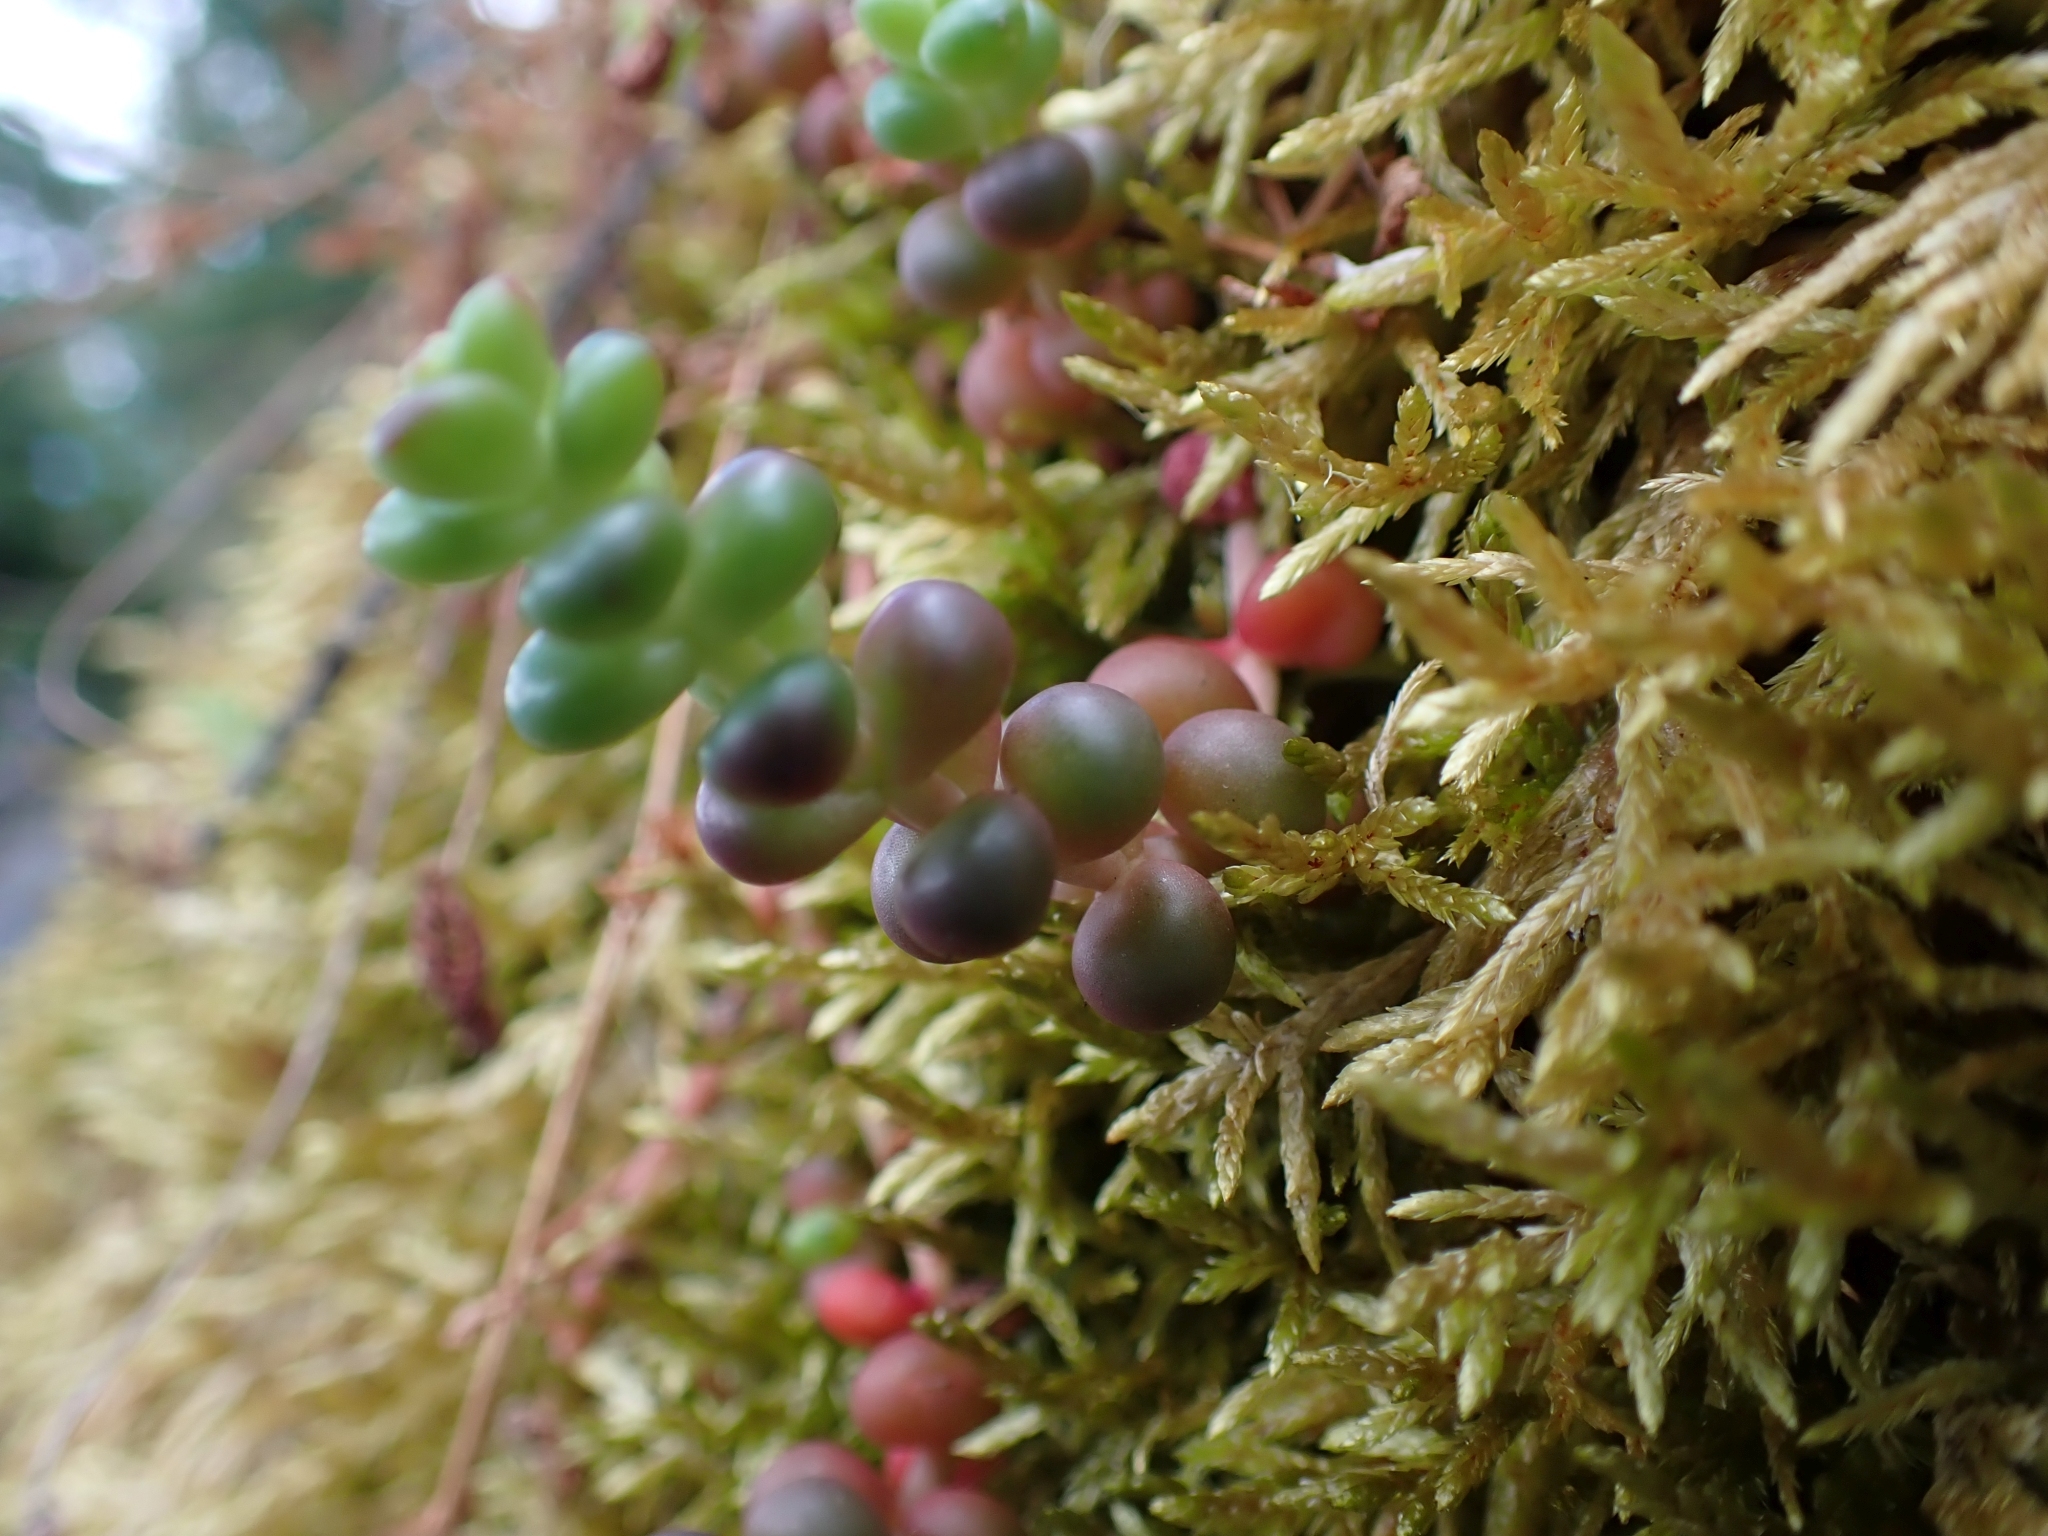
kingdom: Plantae
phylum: Tracheophyta
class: Magnoliopsida
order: Saxifragales
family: Crassulaceae
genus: Sedum
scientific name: Sedum divergens
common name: Cascade stonecrop
